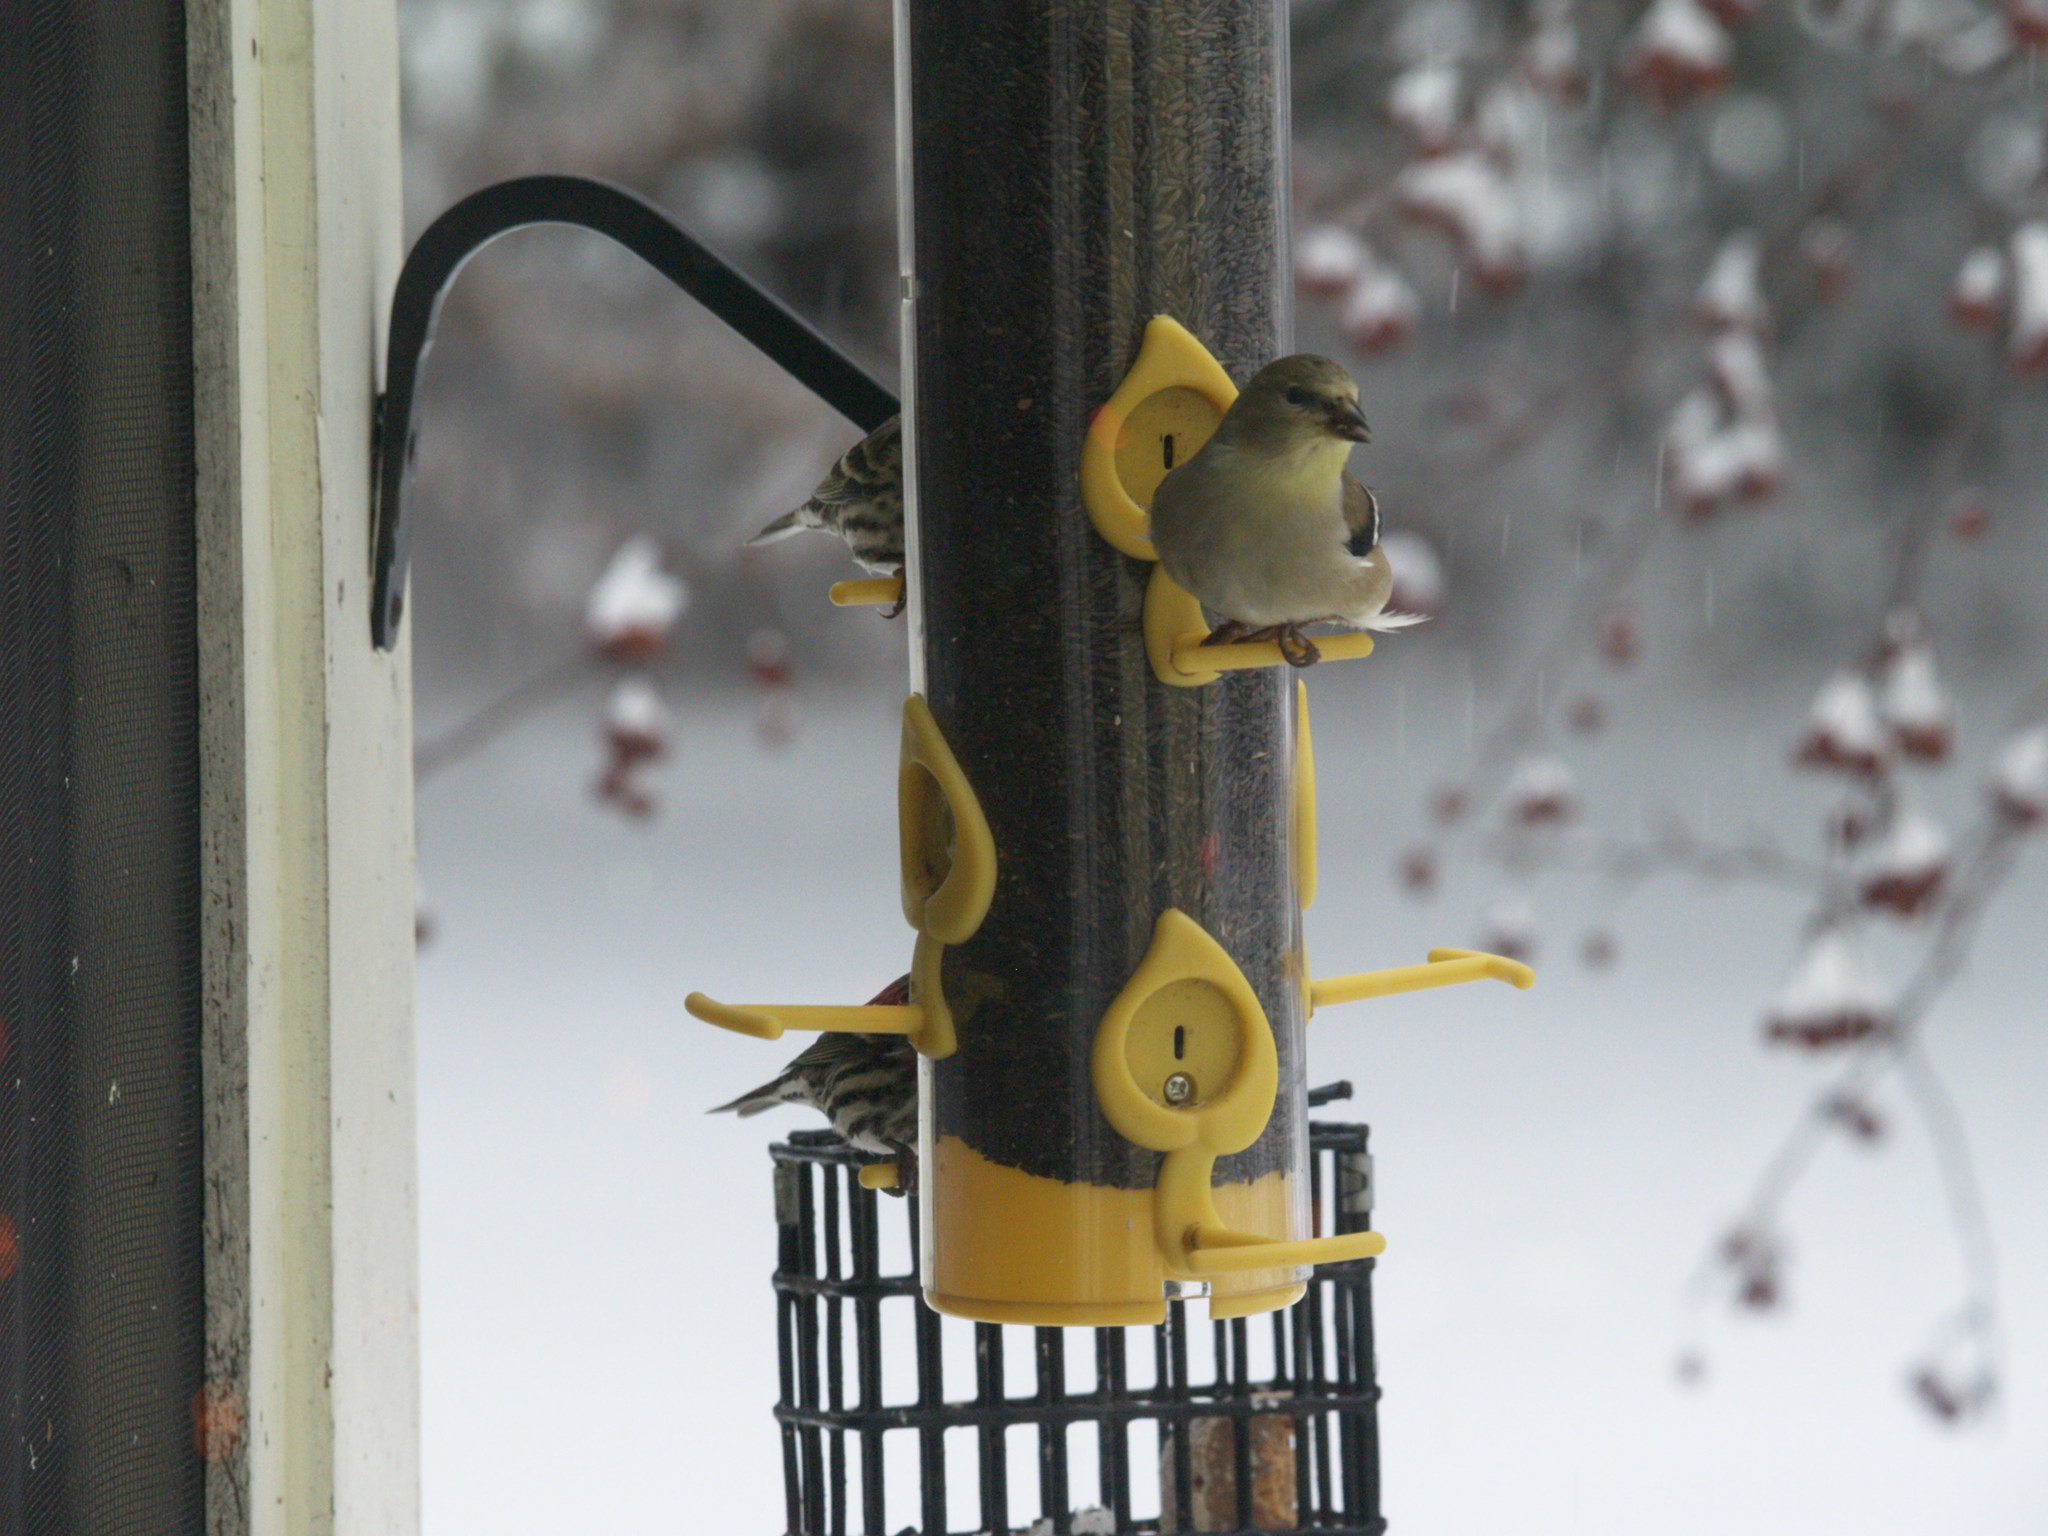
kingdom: Animalia
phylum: Chordata
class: Aves
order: Passeriformes
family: Fringillidae
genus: Spinus
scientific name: Spinus tristis
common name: American goldfinch
